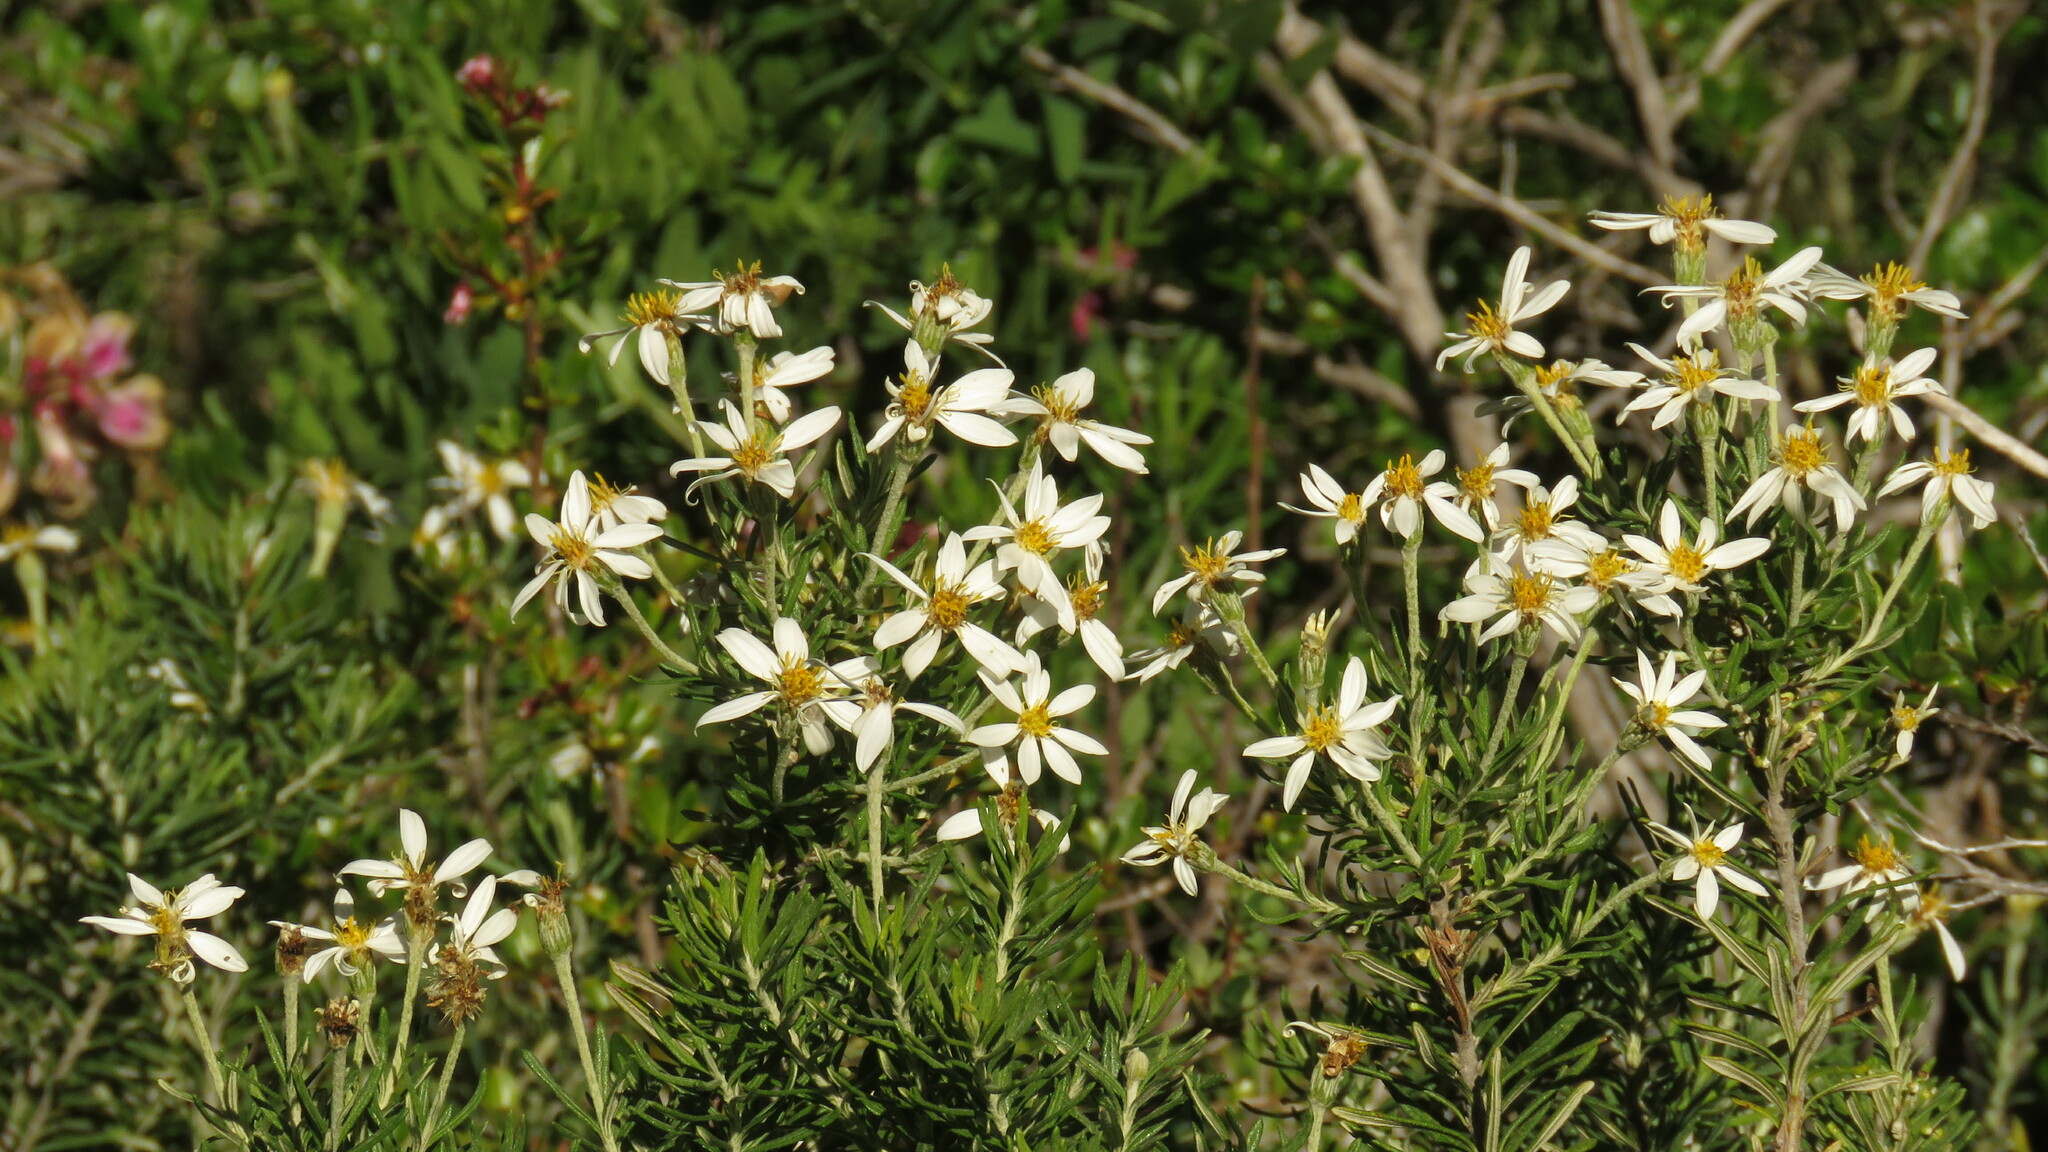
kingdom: Plantae
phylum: Tracheophyta
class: Magnoliopsida
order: Asterales
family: Asteraceae
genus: Chiliotrichum
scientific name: Chiliotrichum diffusum
